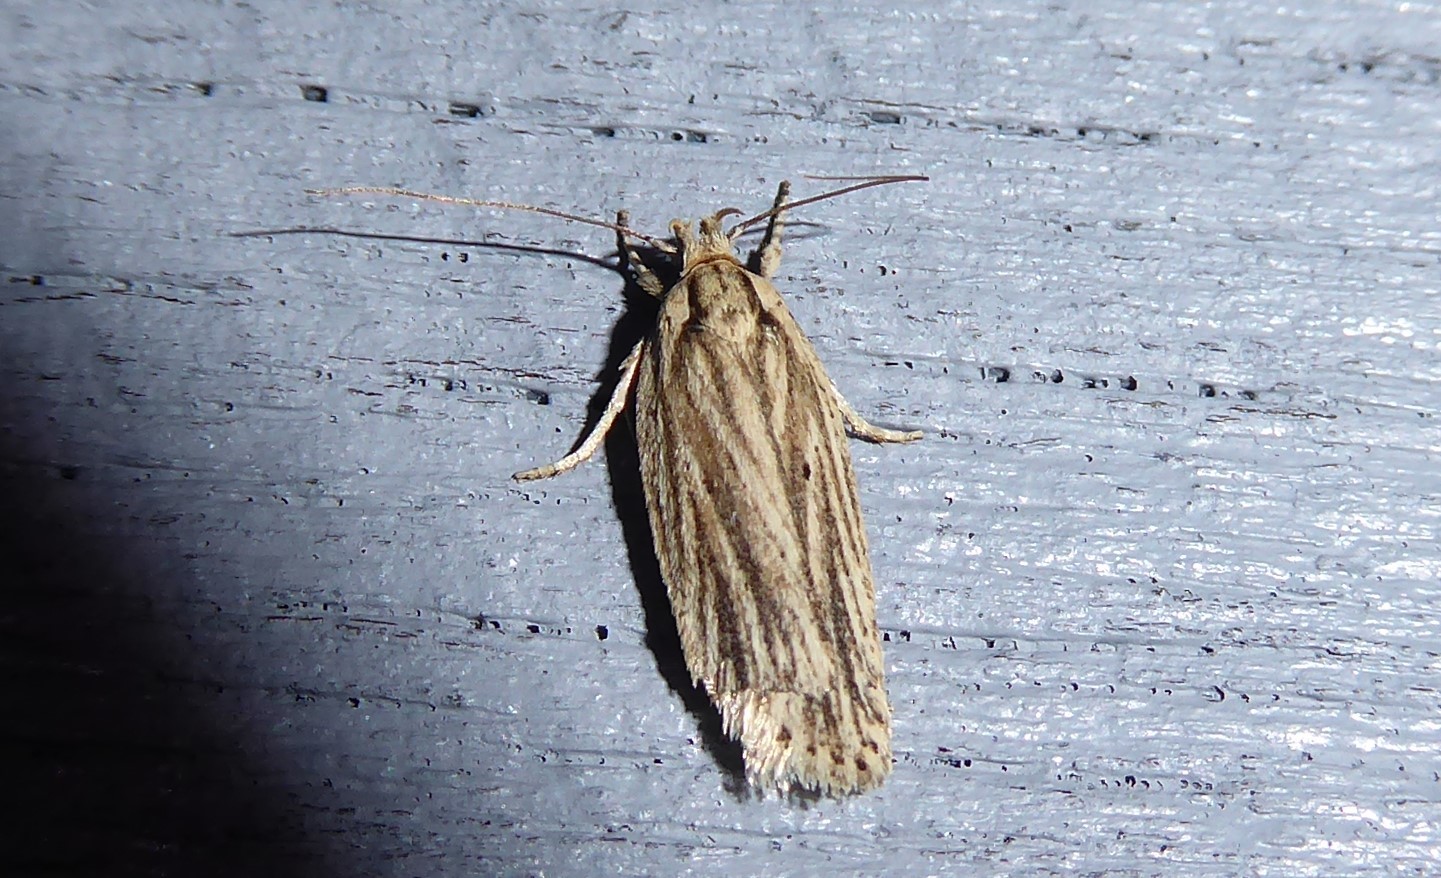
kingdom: Animalia
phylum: Arthropoda
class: Insecta
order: Lepidoptera
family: Depressariidae
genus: Agonopterix
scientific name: Agonopterix
